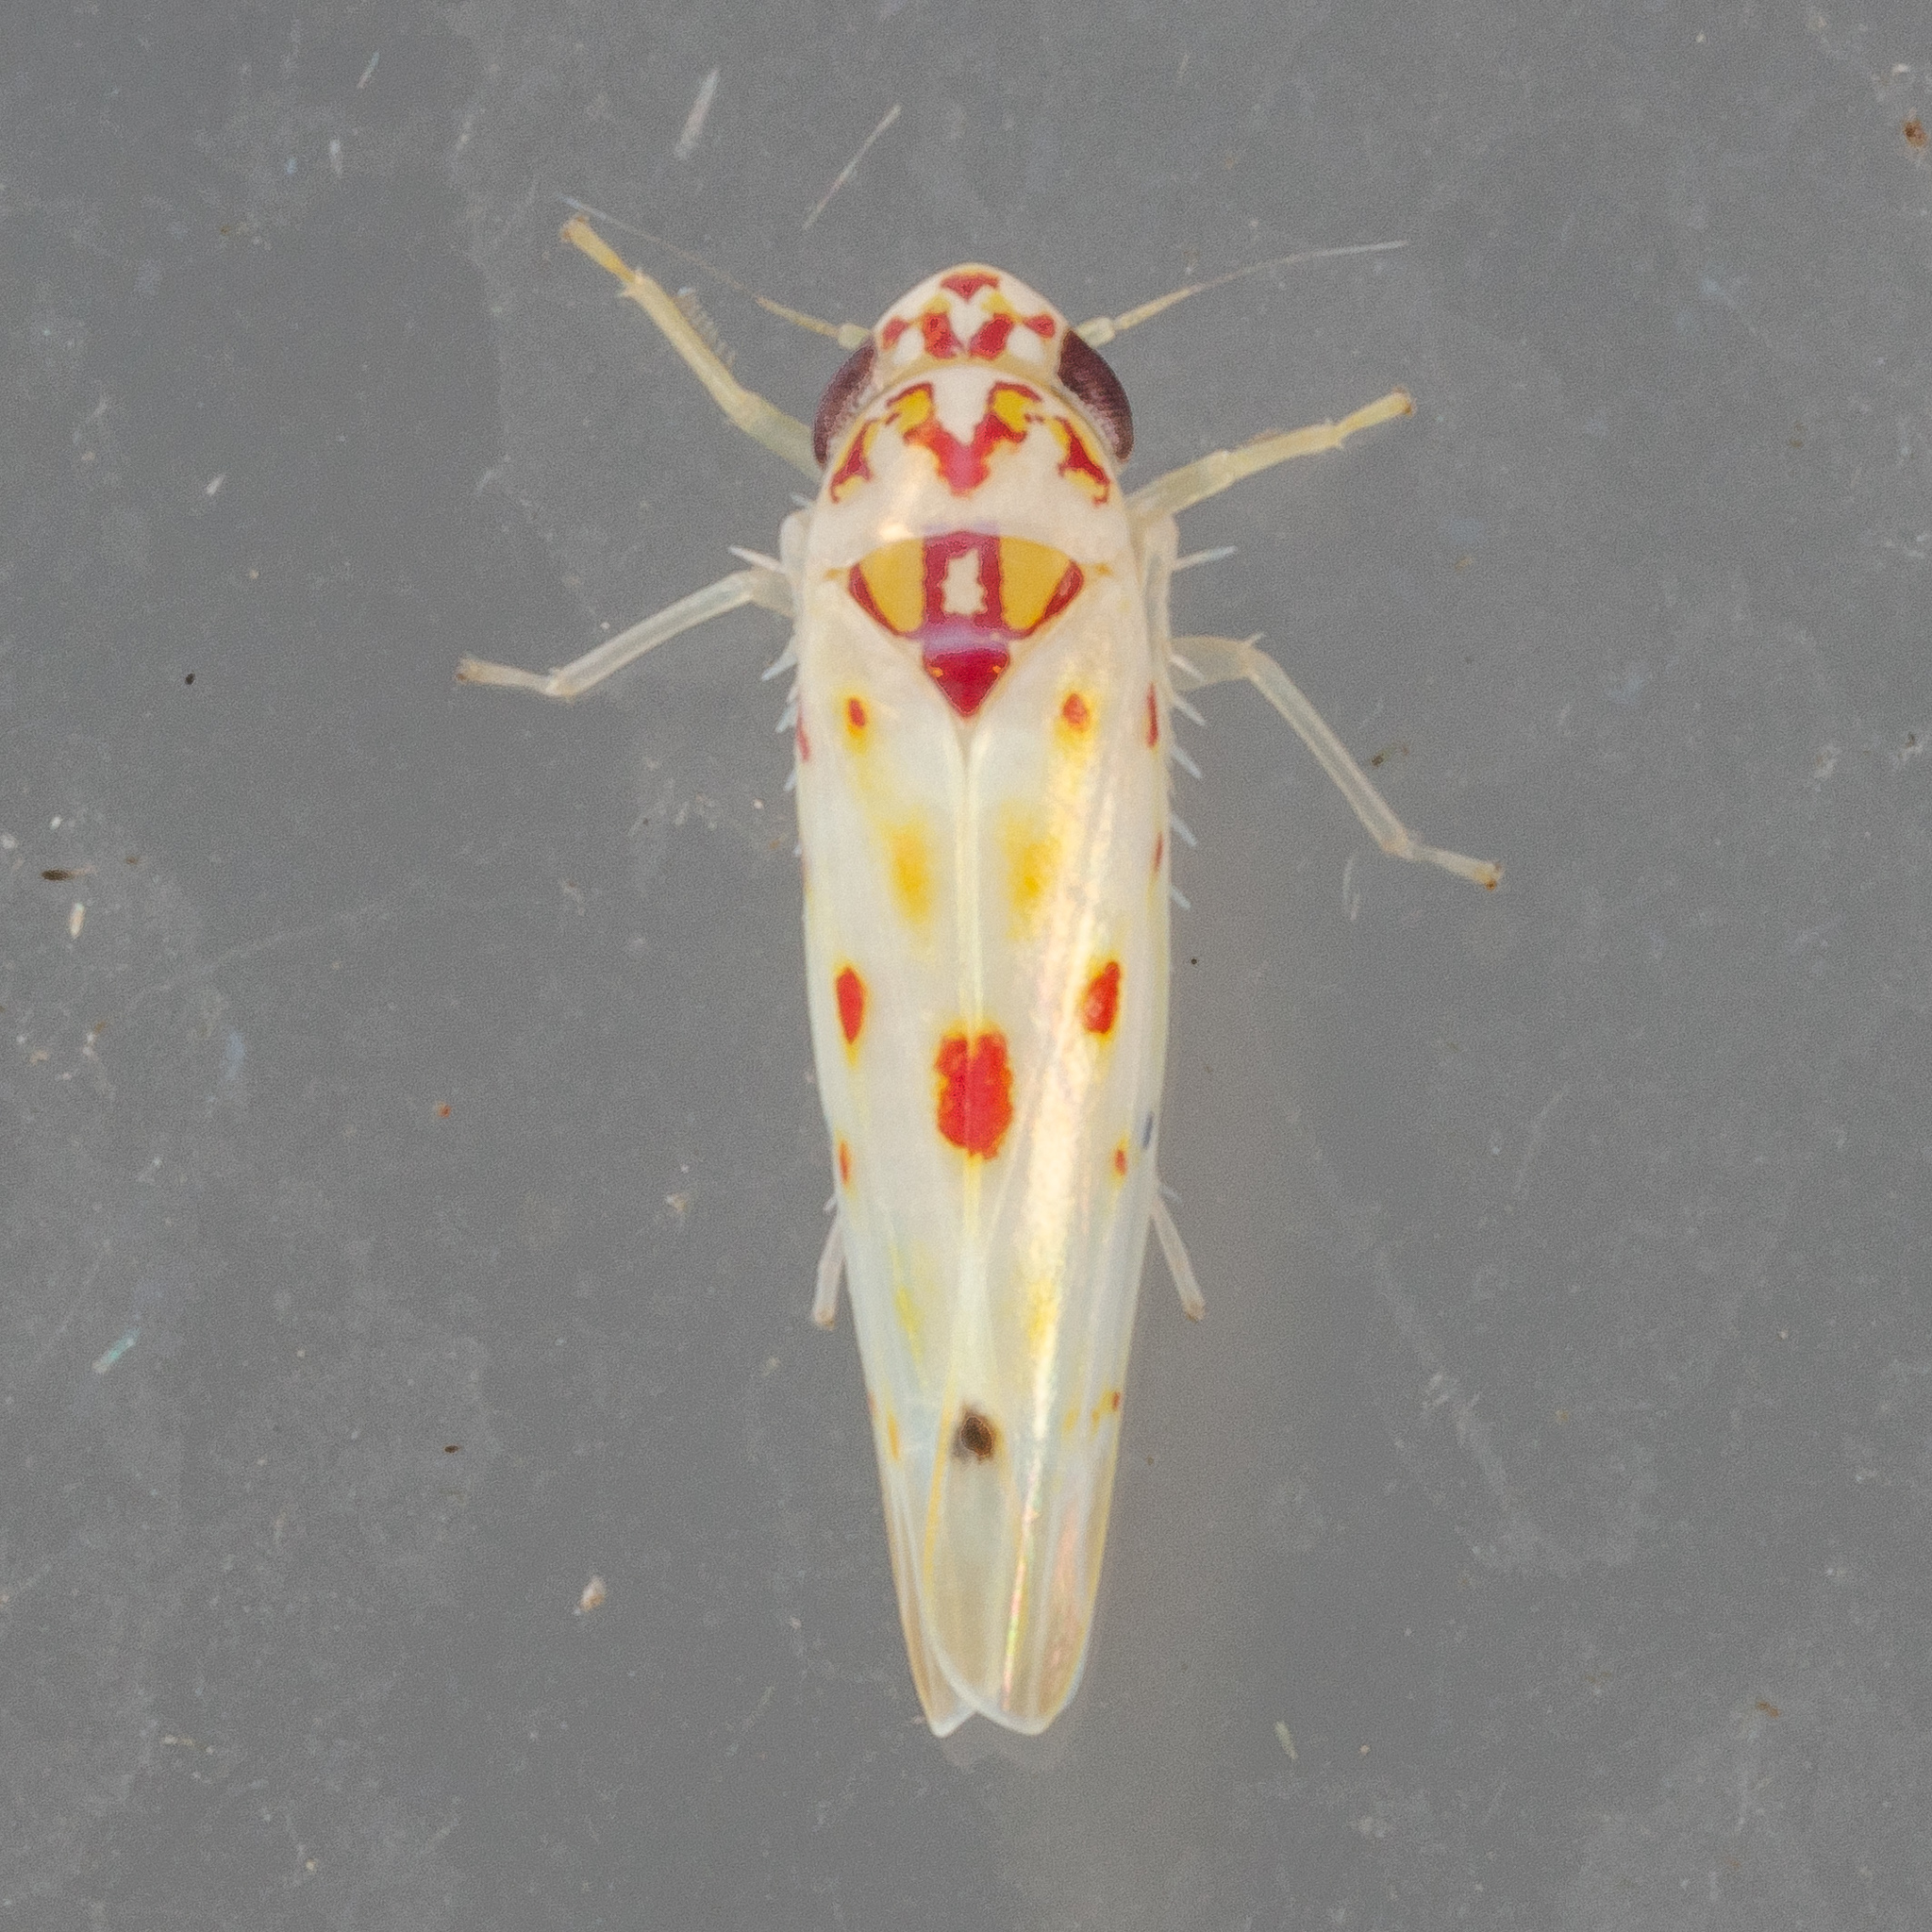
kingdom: Animalia
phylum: Arthropoda
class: Insecta
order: Hemiptera
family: Cicadellidae
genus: Eratoneura
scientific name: Eratoneura hymac
